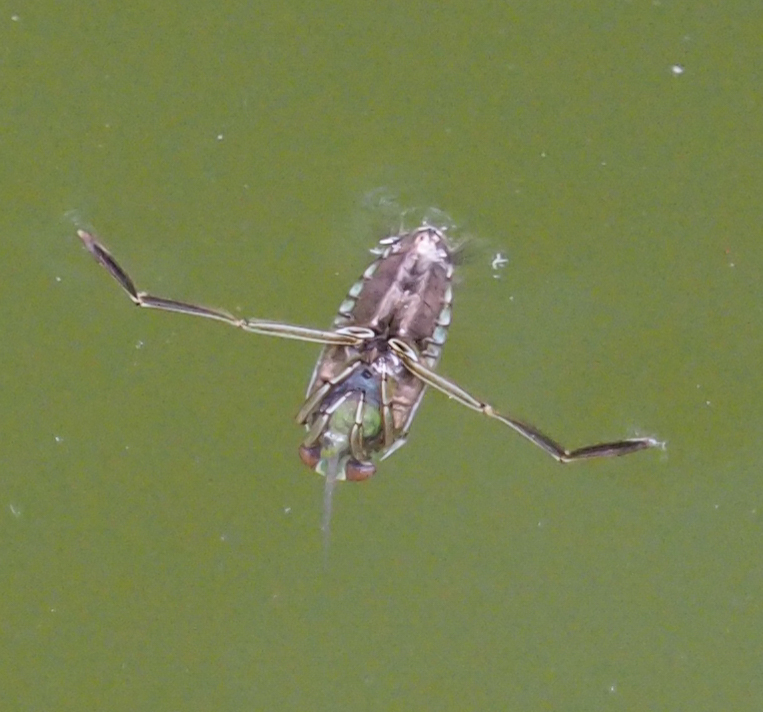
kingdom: Animalia
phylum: Arthropoda
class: Insecta
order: Hemiptera
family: Notonectidae
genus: Notonecta
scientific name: Notonecta
